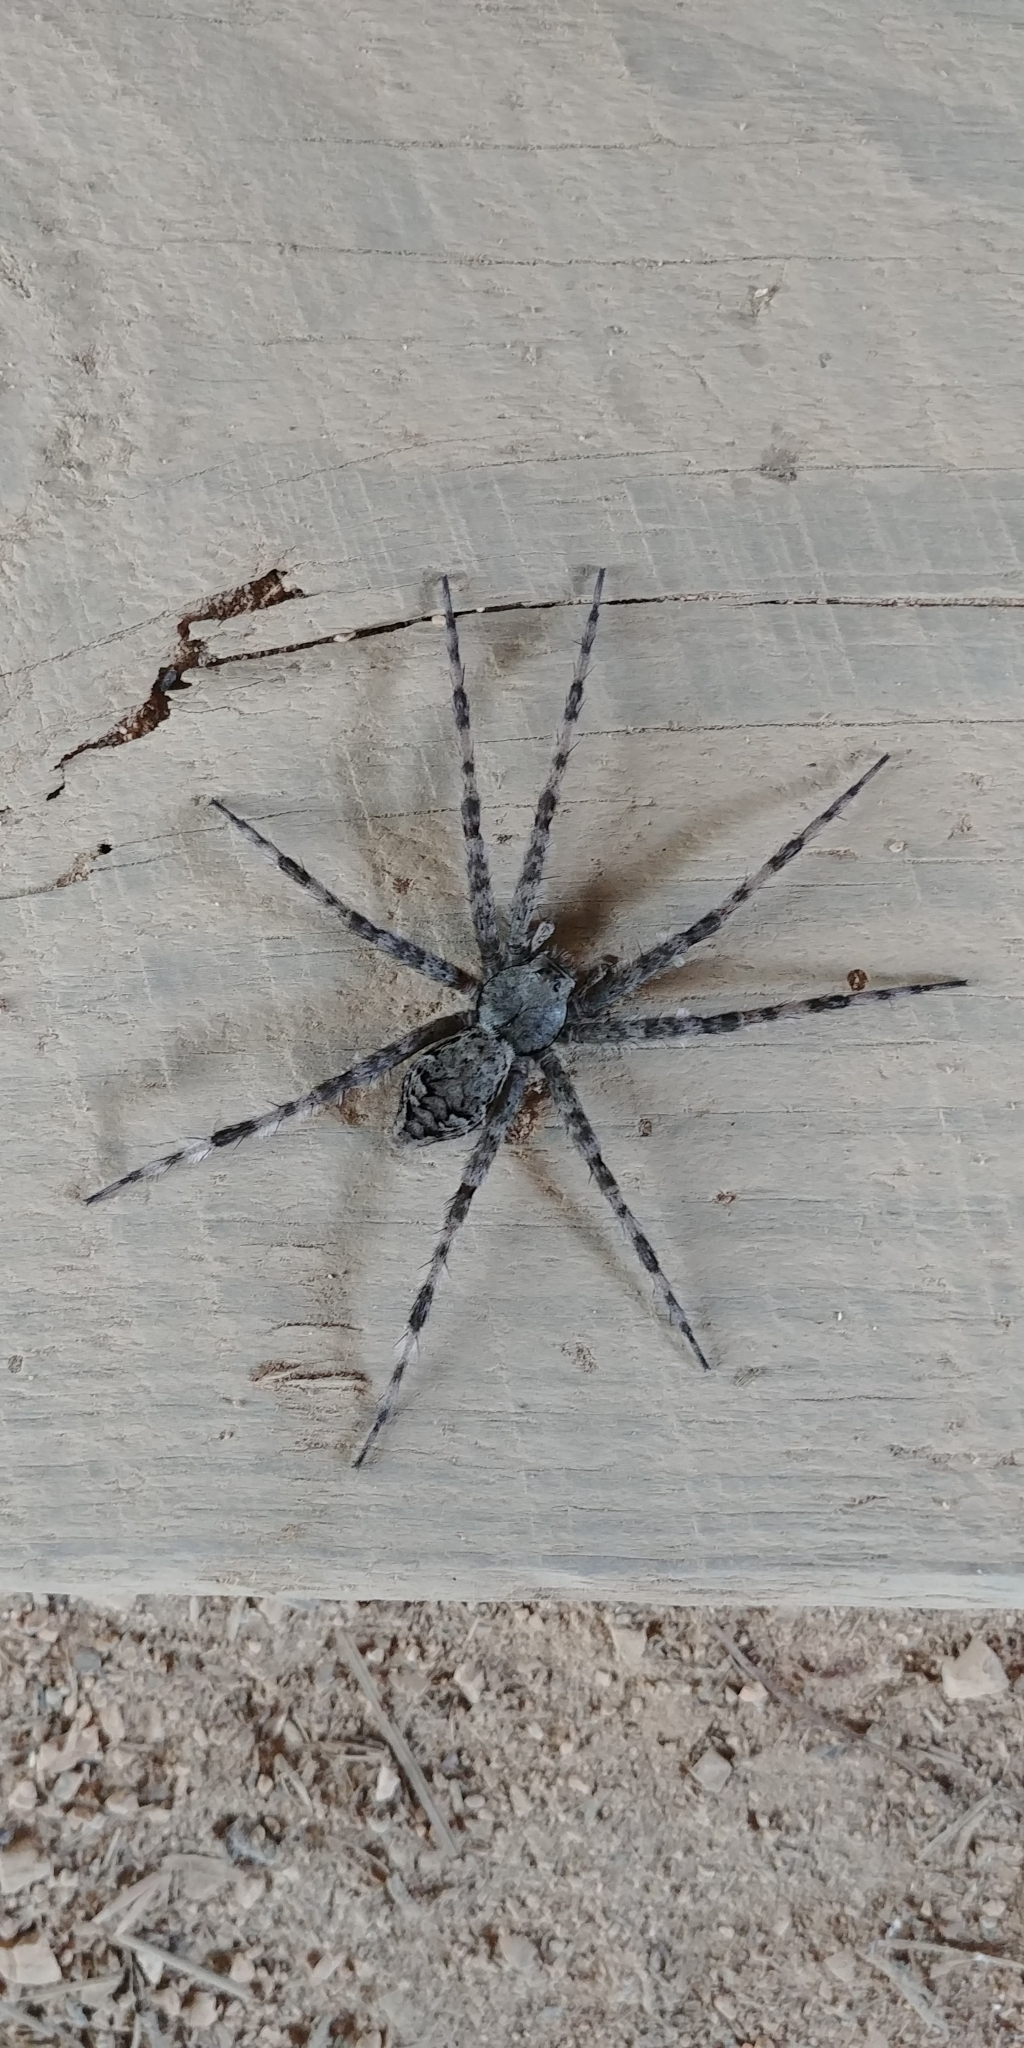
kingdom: Animalia
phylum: Arthropoda
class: Arachnida
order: Araneae
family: Pisauridae
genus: Dolomedes
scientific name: Dolomedes albineus
